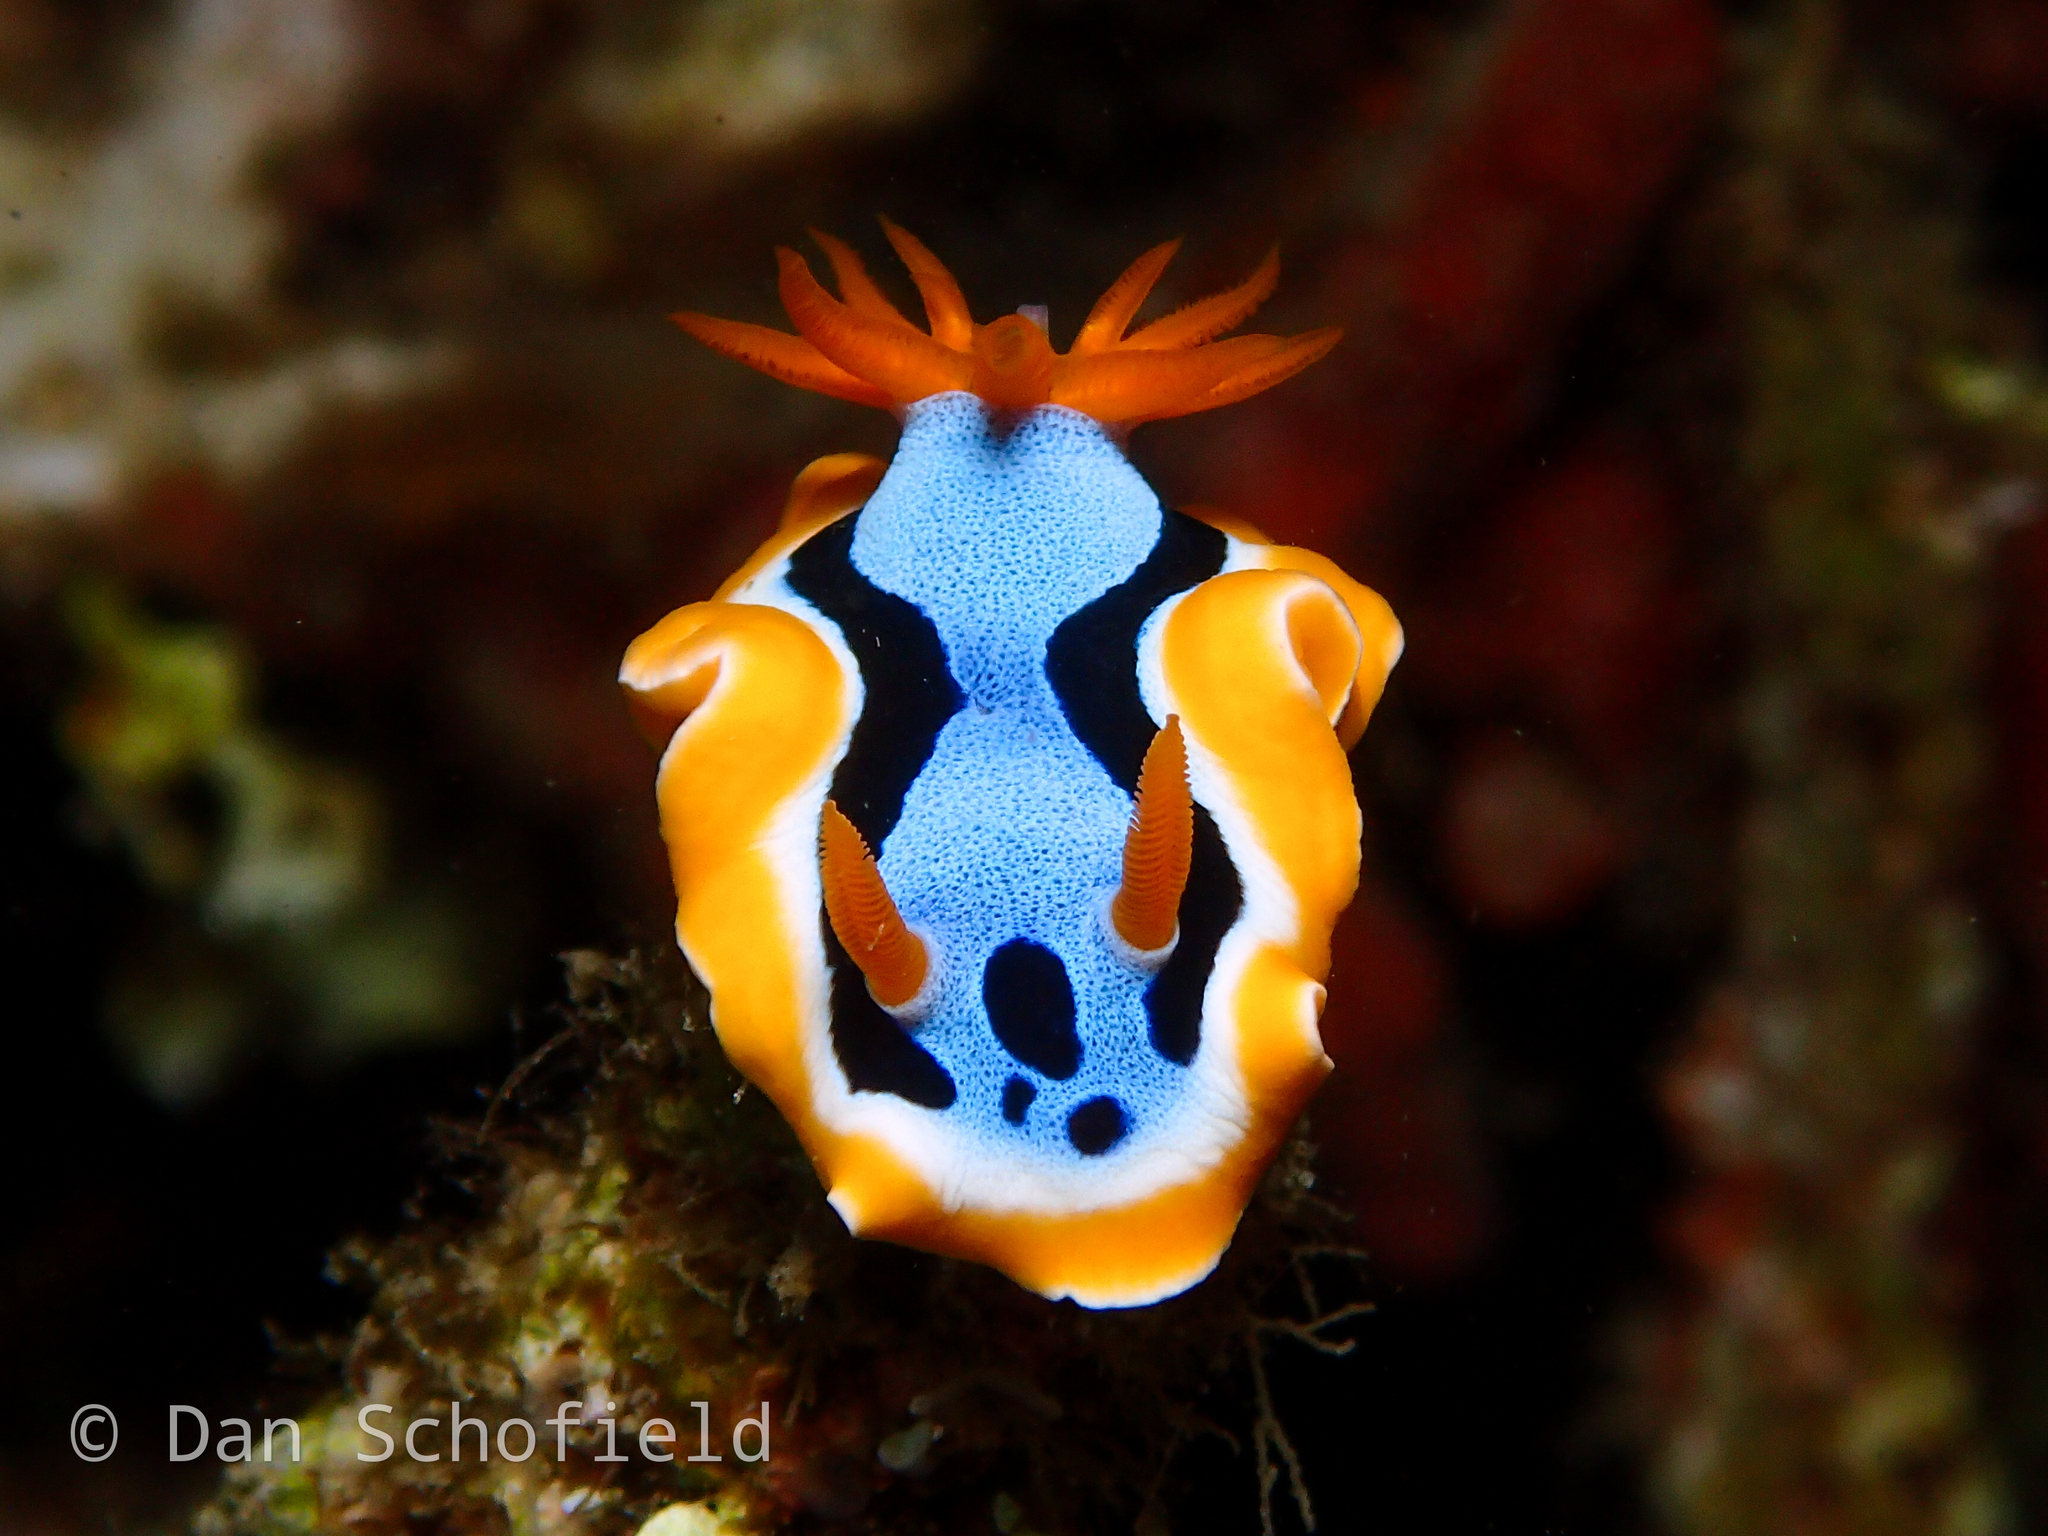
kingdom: Animalia
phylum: Mollusca
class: Gastropoda
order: Nudibranchia
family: Chromodorididae
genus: Chromodoris
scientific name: Chromodoris annae
